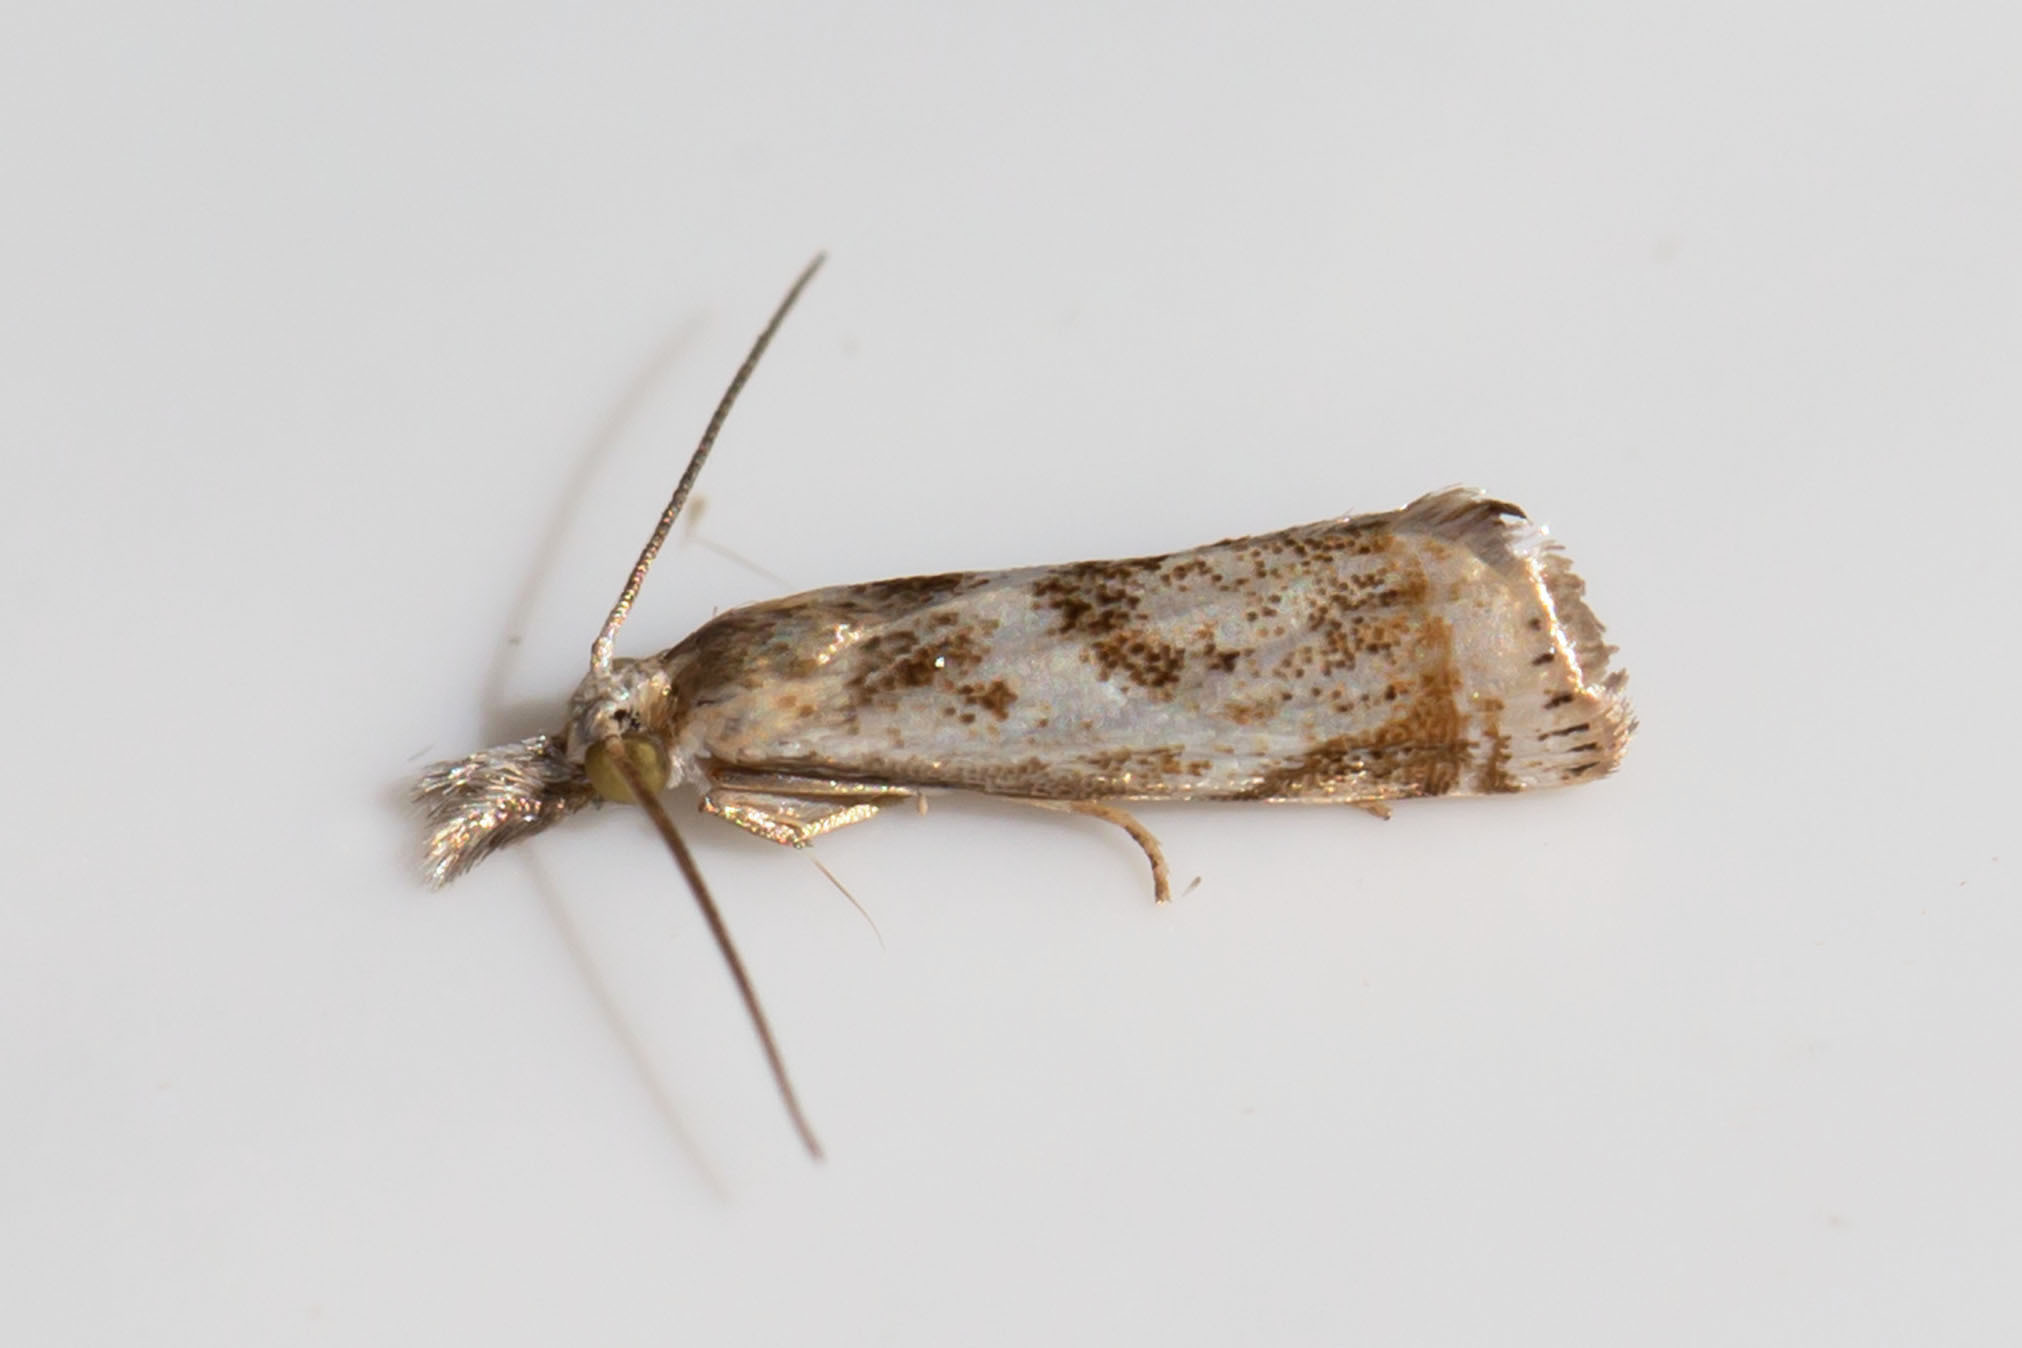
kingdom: Animalia
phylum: Arthropoda
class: Insecta
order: Lepidoptera
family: Crambidae
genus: Microcrambus
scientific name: Microcrambus elegans
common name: Elegant grass-veneer
